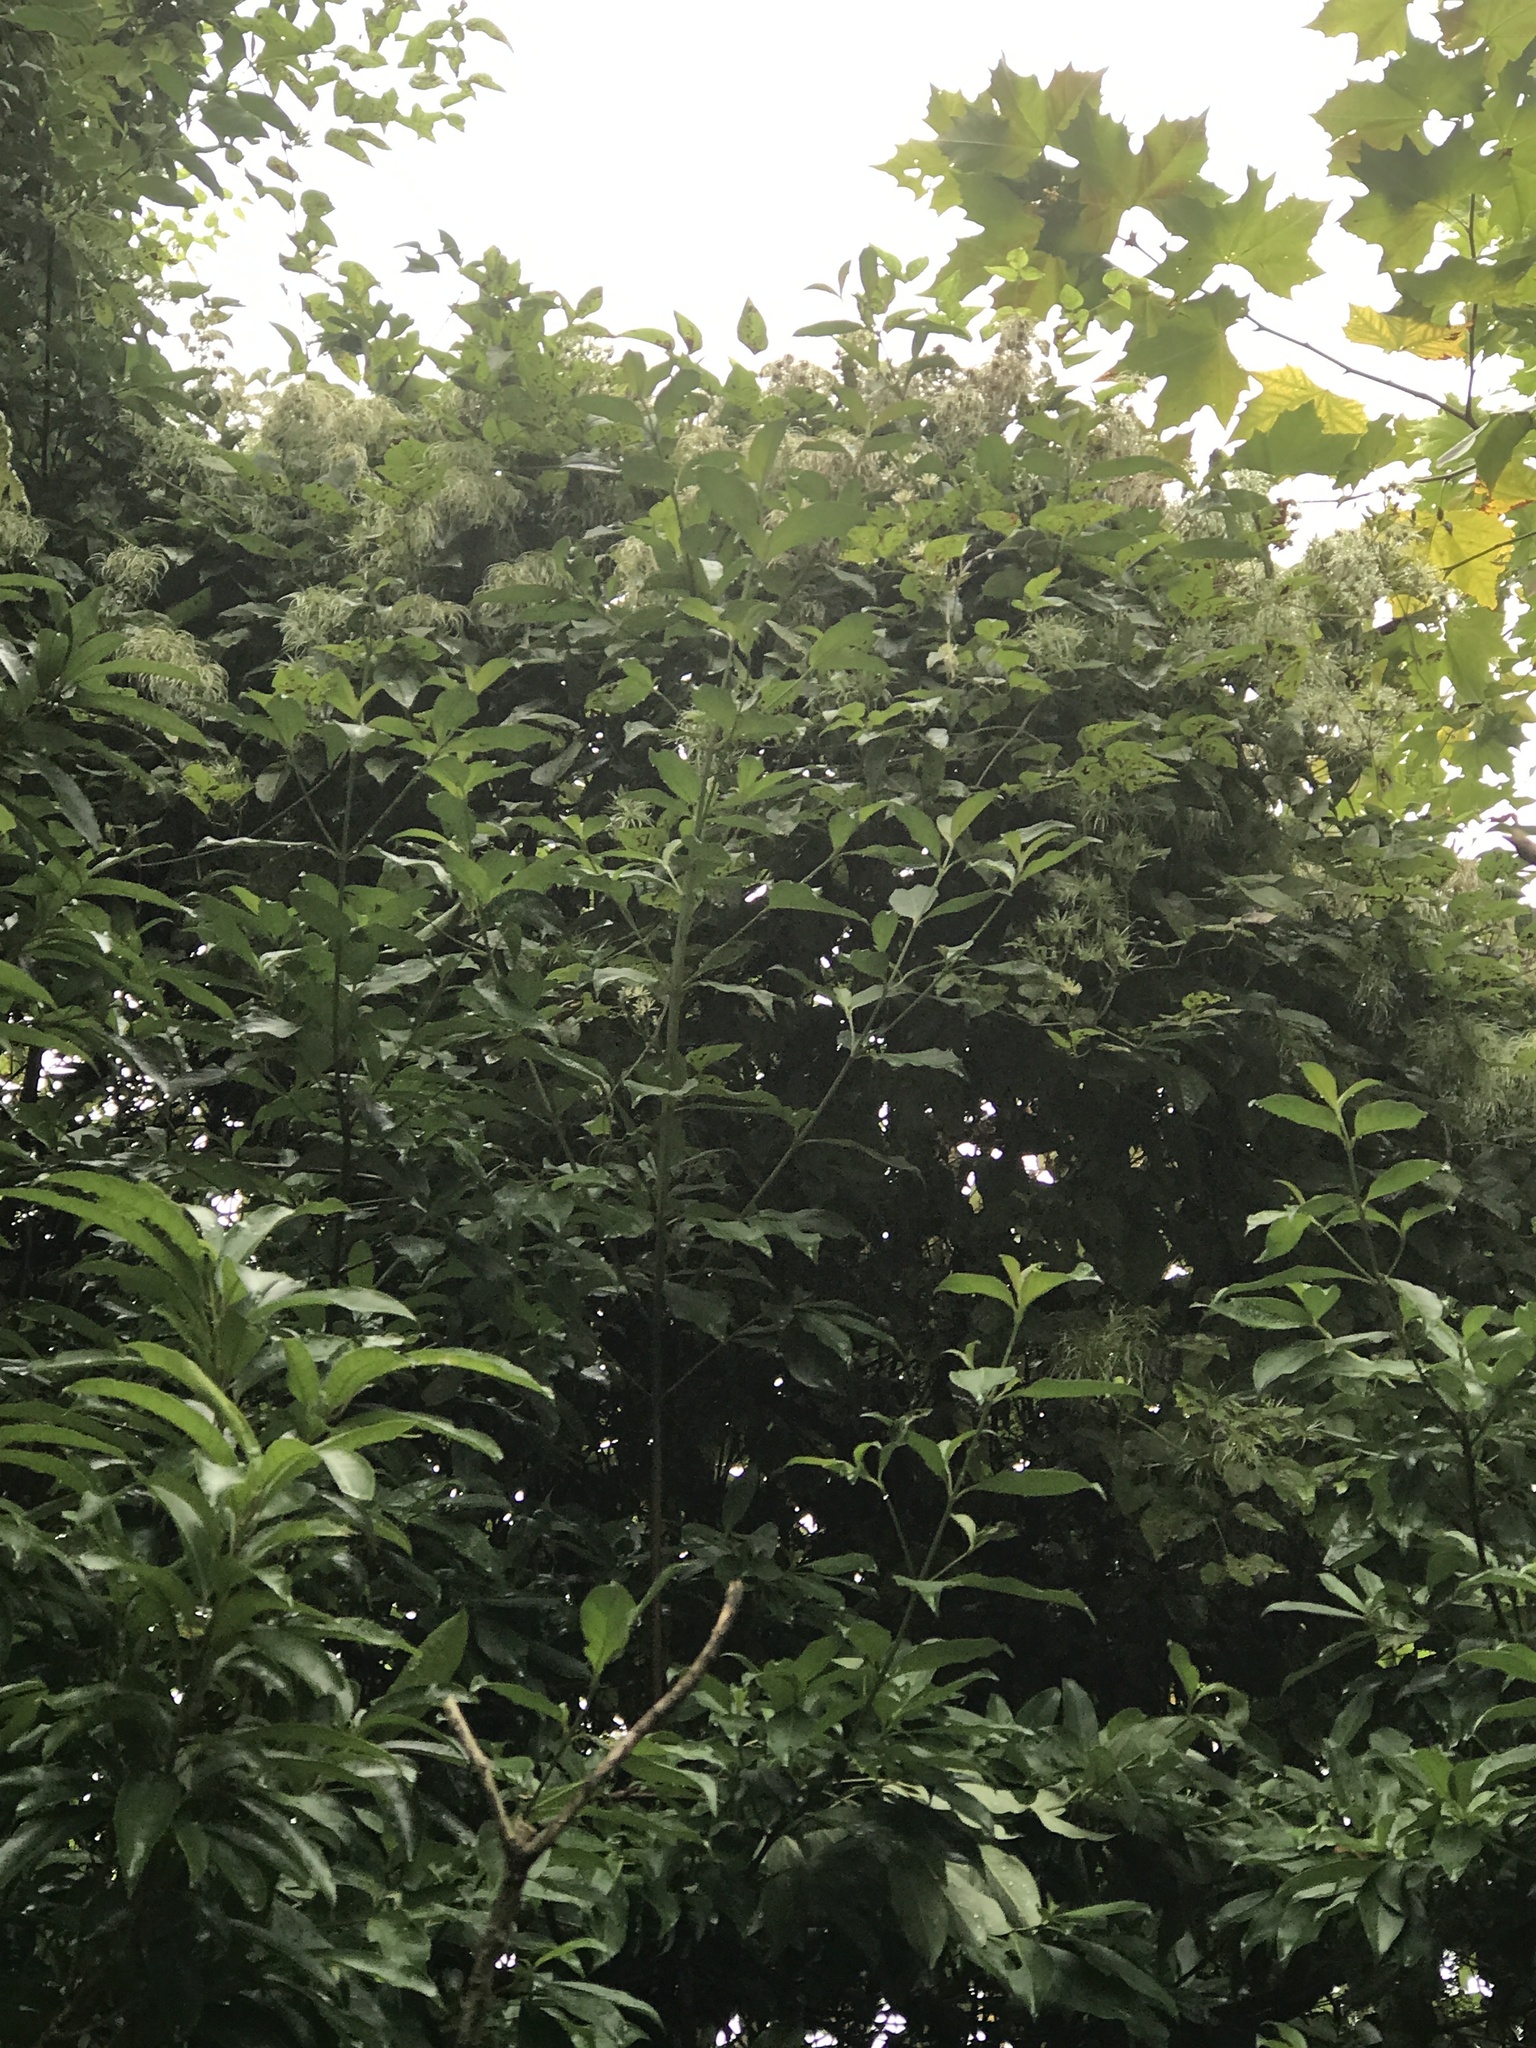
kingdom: Plantae
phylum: Tracheophyta
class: Magnoliopsida
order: Ranunculales
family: Ranunculaceae
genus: Clematis
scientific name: Clematis vitalba
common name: Evergreen clematis
